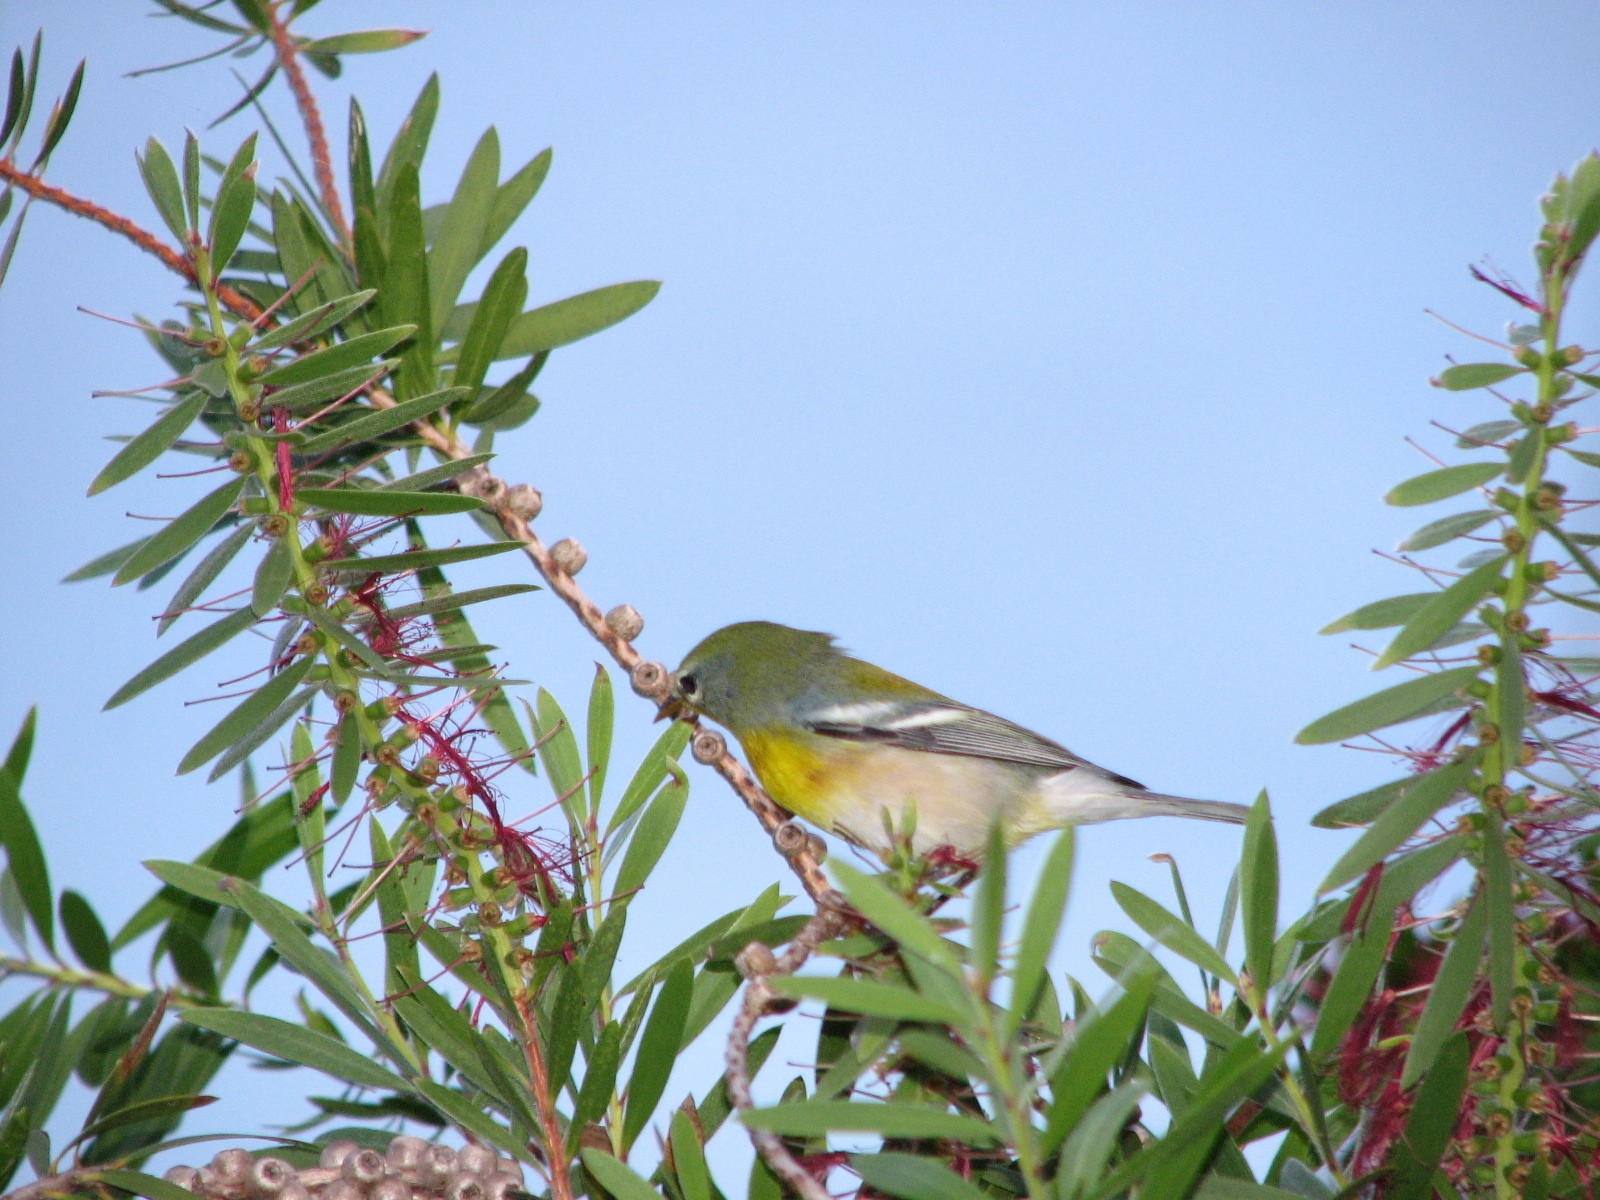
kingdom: Animalia
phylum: Chordata
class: Aves
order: Passeriformes
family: Parulidae
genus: Setophaga
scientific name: Setophaga americana
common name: Northern parula
